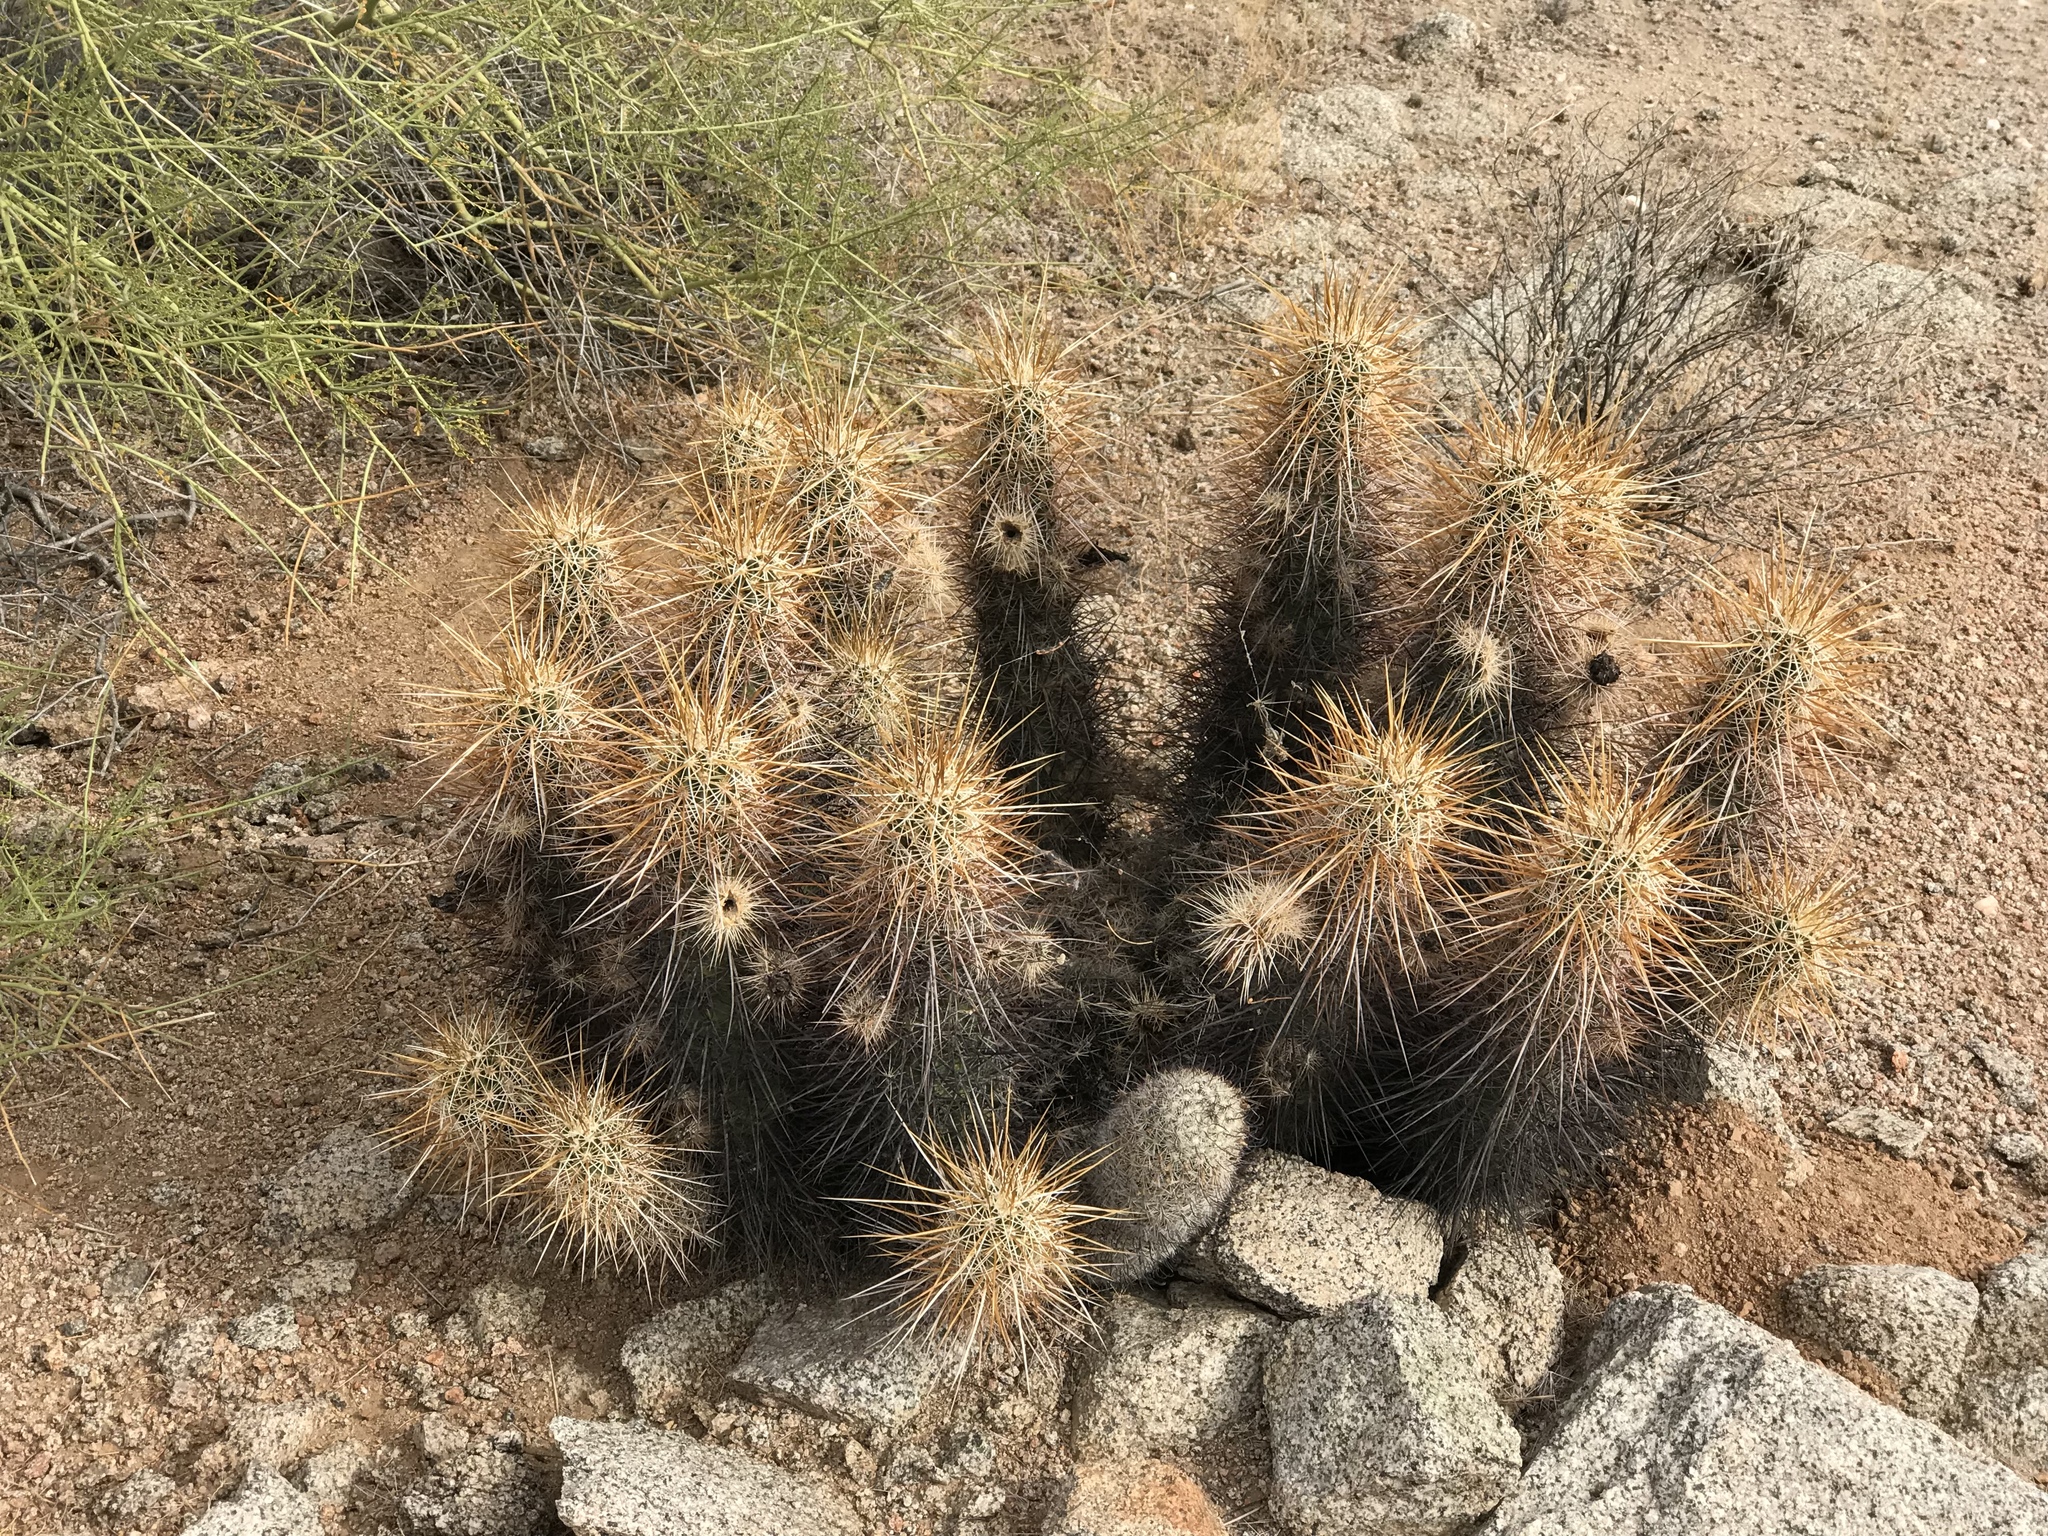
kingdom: Plantae
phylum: Tracheophyta
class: Magnoliopsida
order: Caryophyllales
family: Cactaceae
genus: Echinocereus
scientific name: Echinocereus engelmannii
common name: Engelmann's hedgehog cactus
